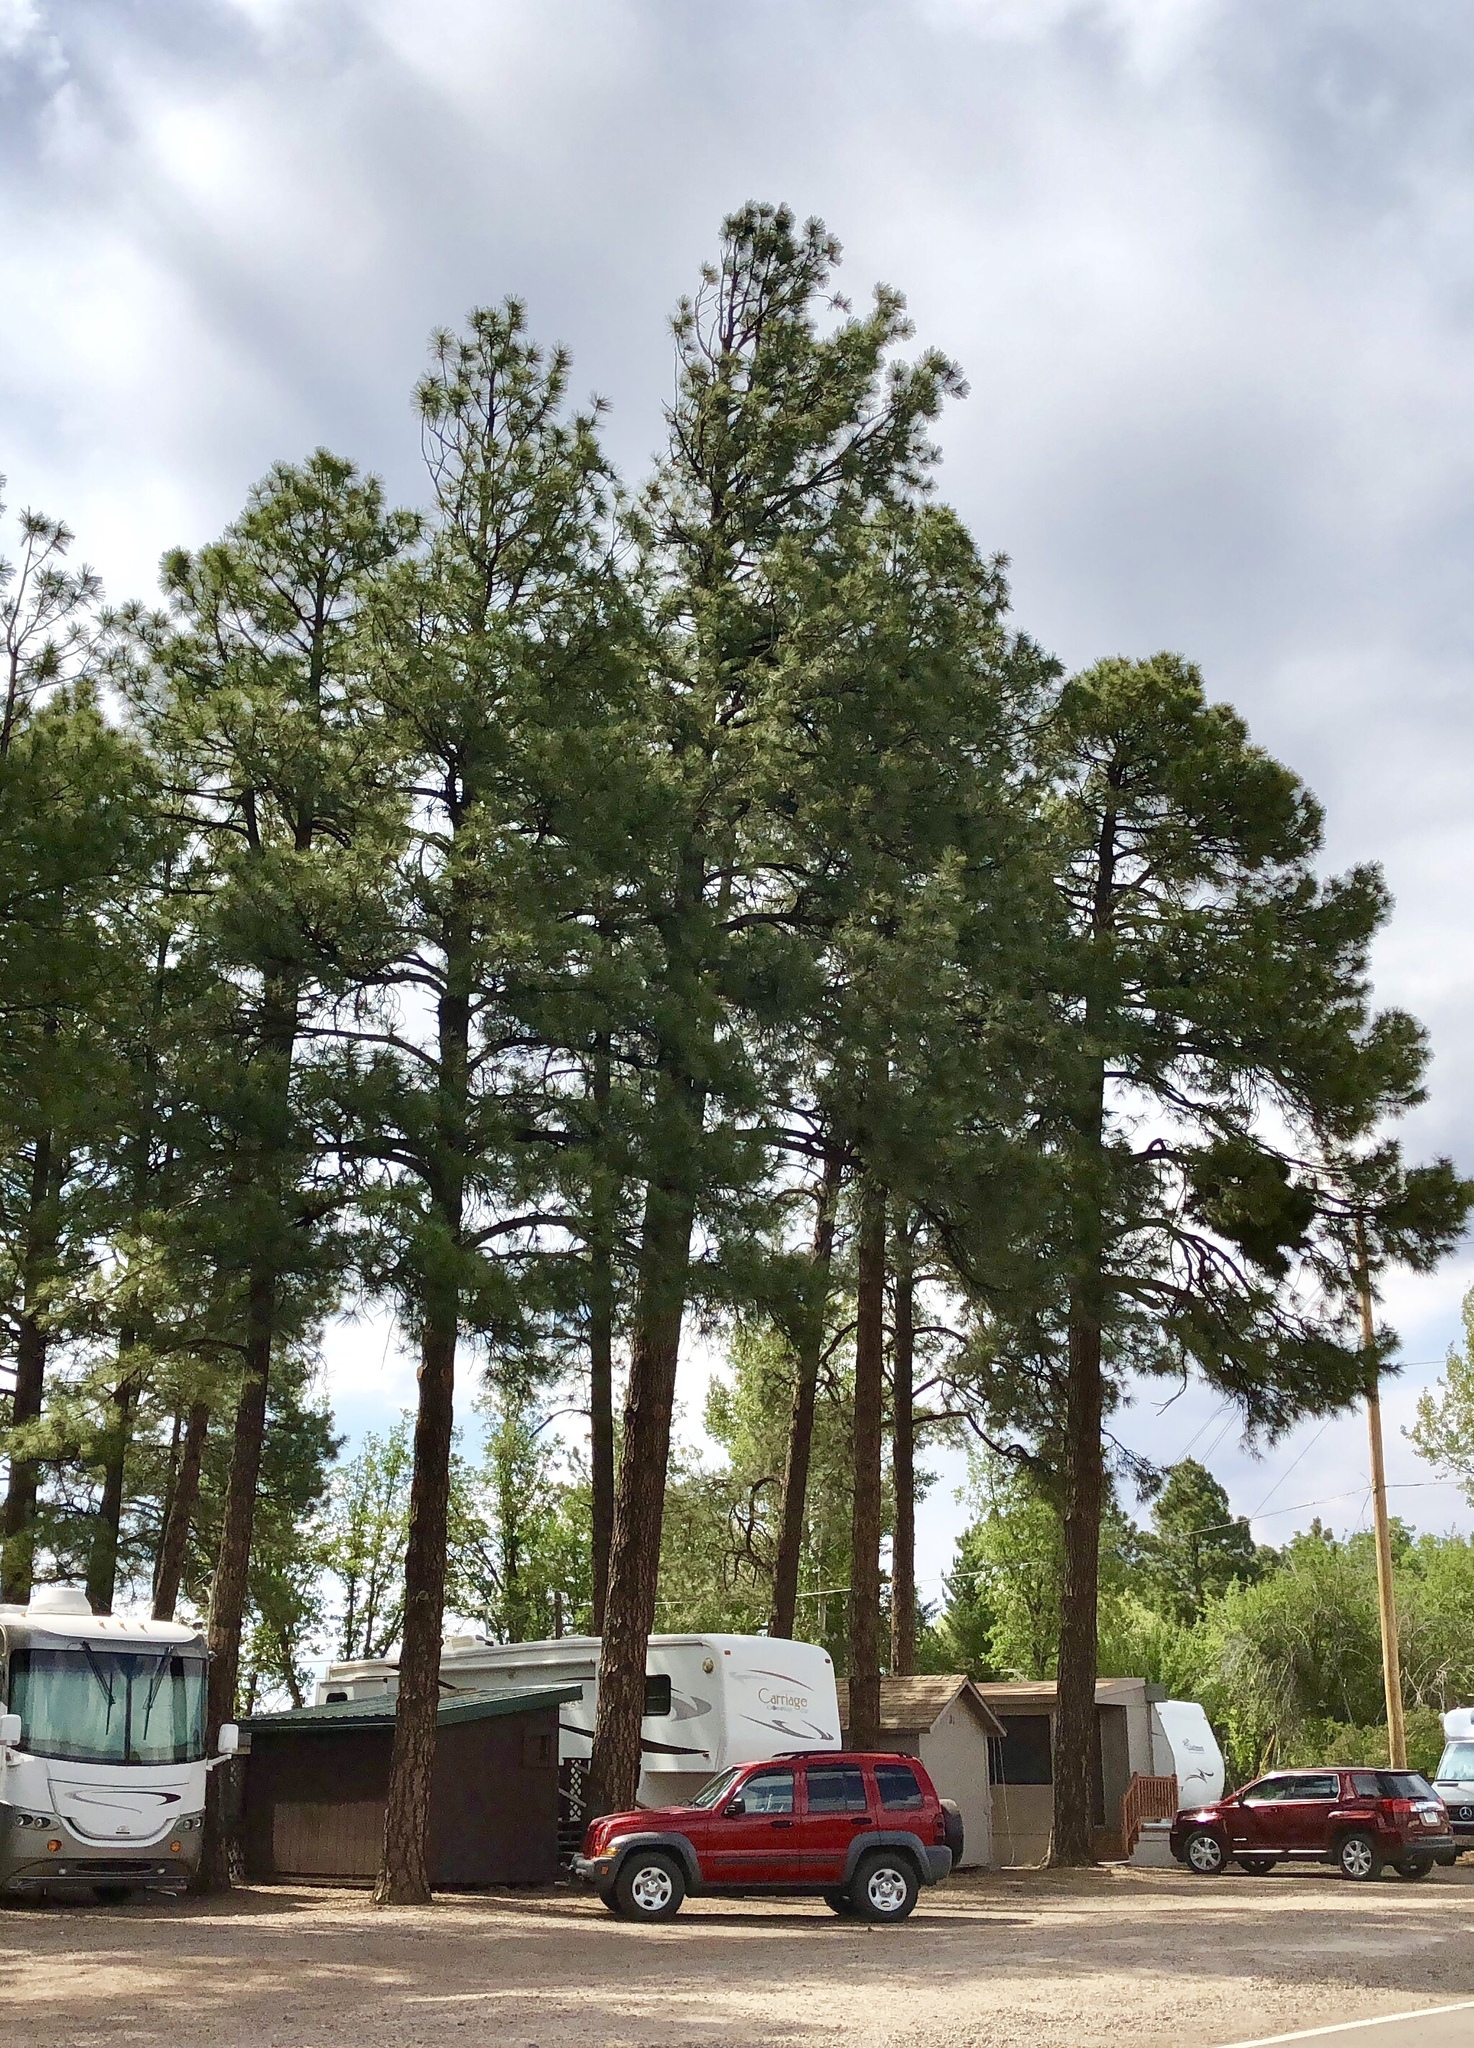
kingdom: Plantae
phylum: Tracheophyta
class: Pinopsida
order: Pinales
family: Pinaceae
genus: Pinus
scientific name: Pinus ponderosa
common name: Western yellow-pine
